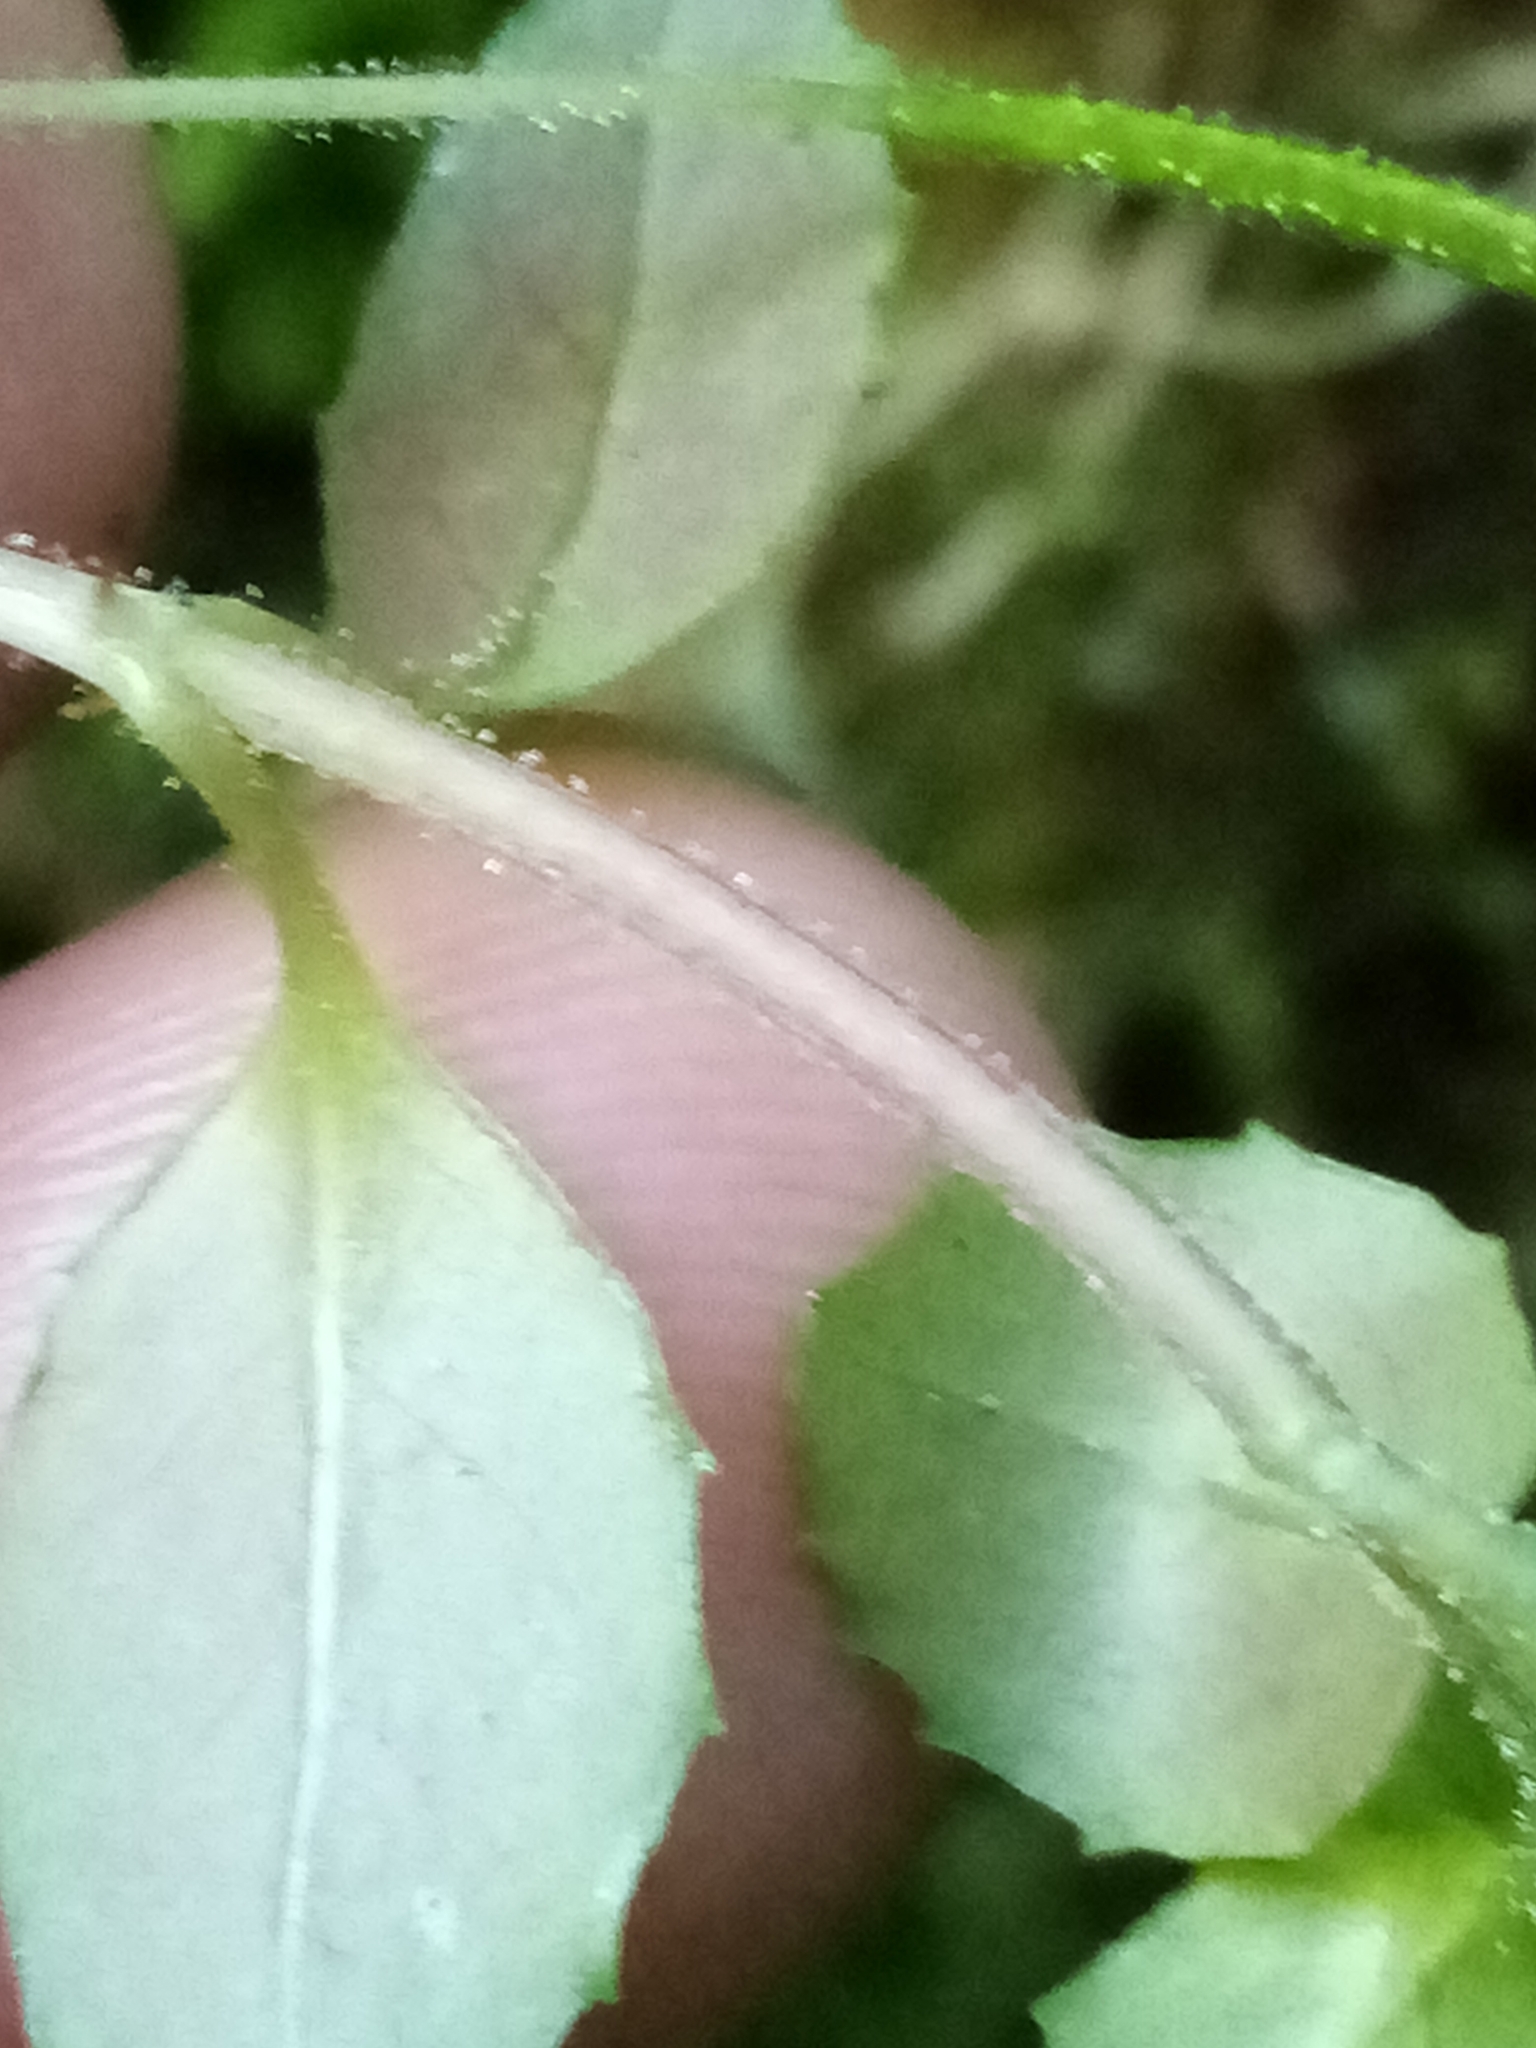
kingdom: Plantae
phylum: Tracheophyta
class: Magnoliopsida
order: Myrtales
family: Onagraceae
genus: Epilobium
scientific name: Epilobium rotundifolium
